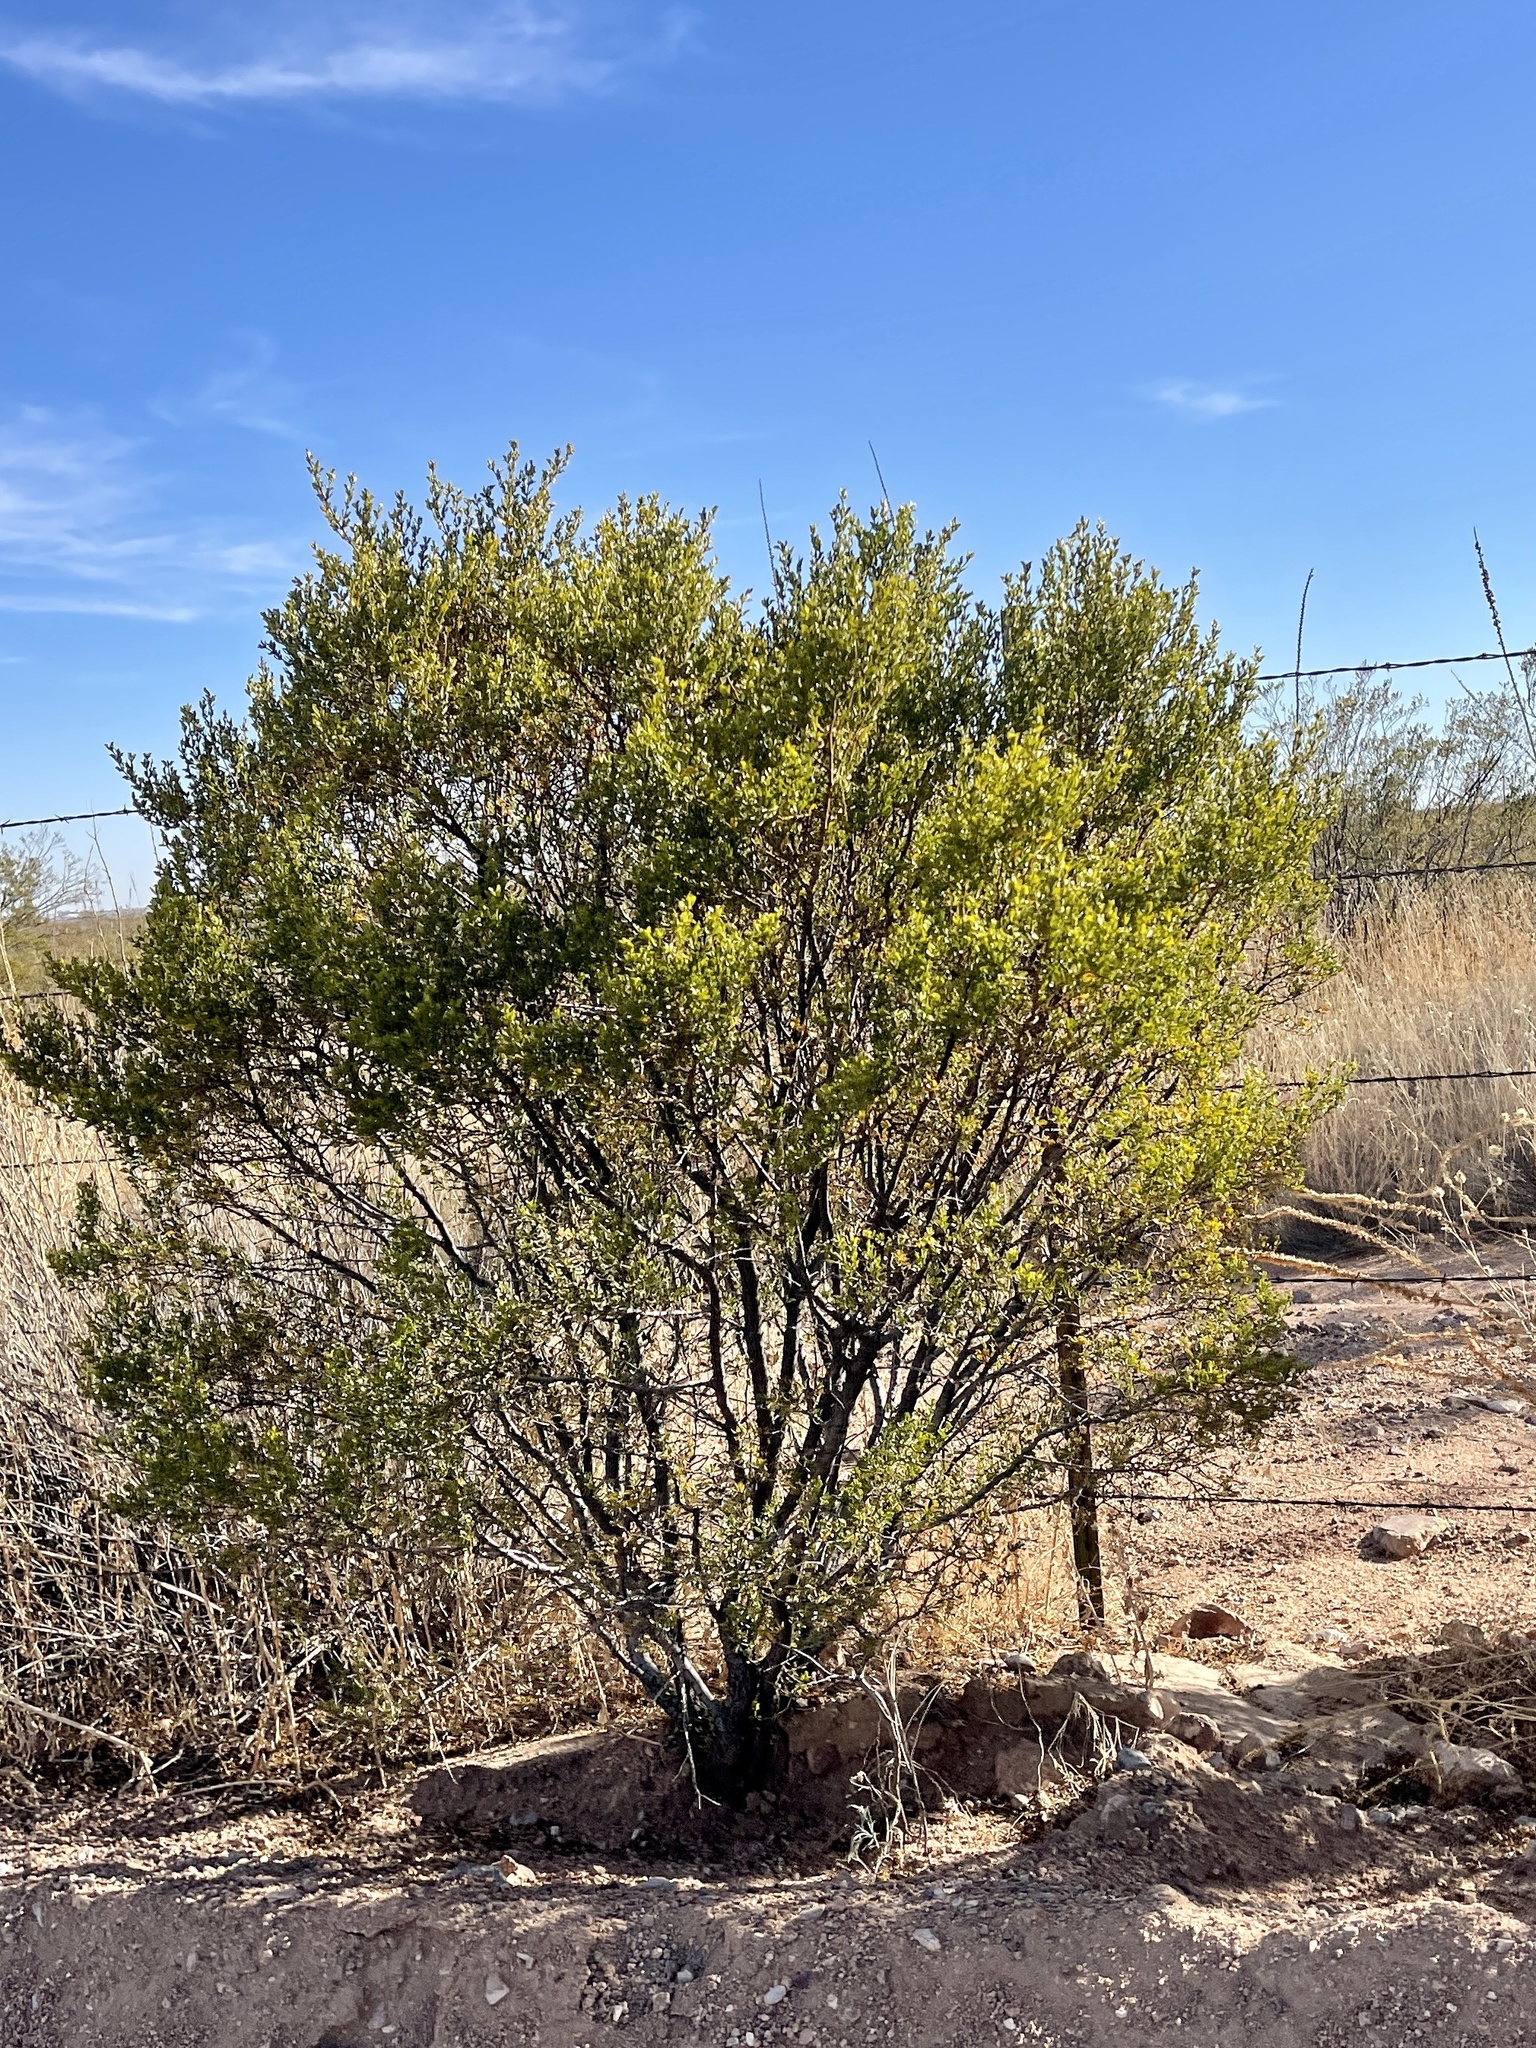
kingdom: Plantae
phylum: Tracheophyta
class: Magnoliopsida
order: Zygophyllales
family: Zygophyllaceae
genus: Larrea
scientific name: Larrea tridentata
